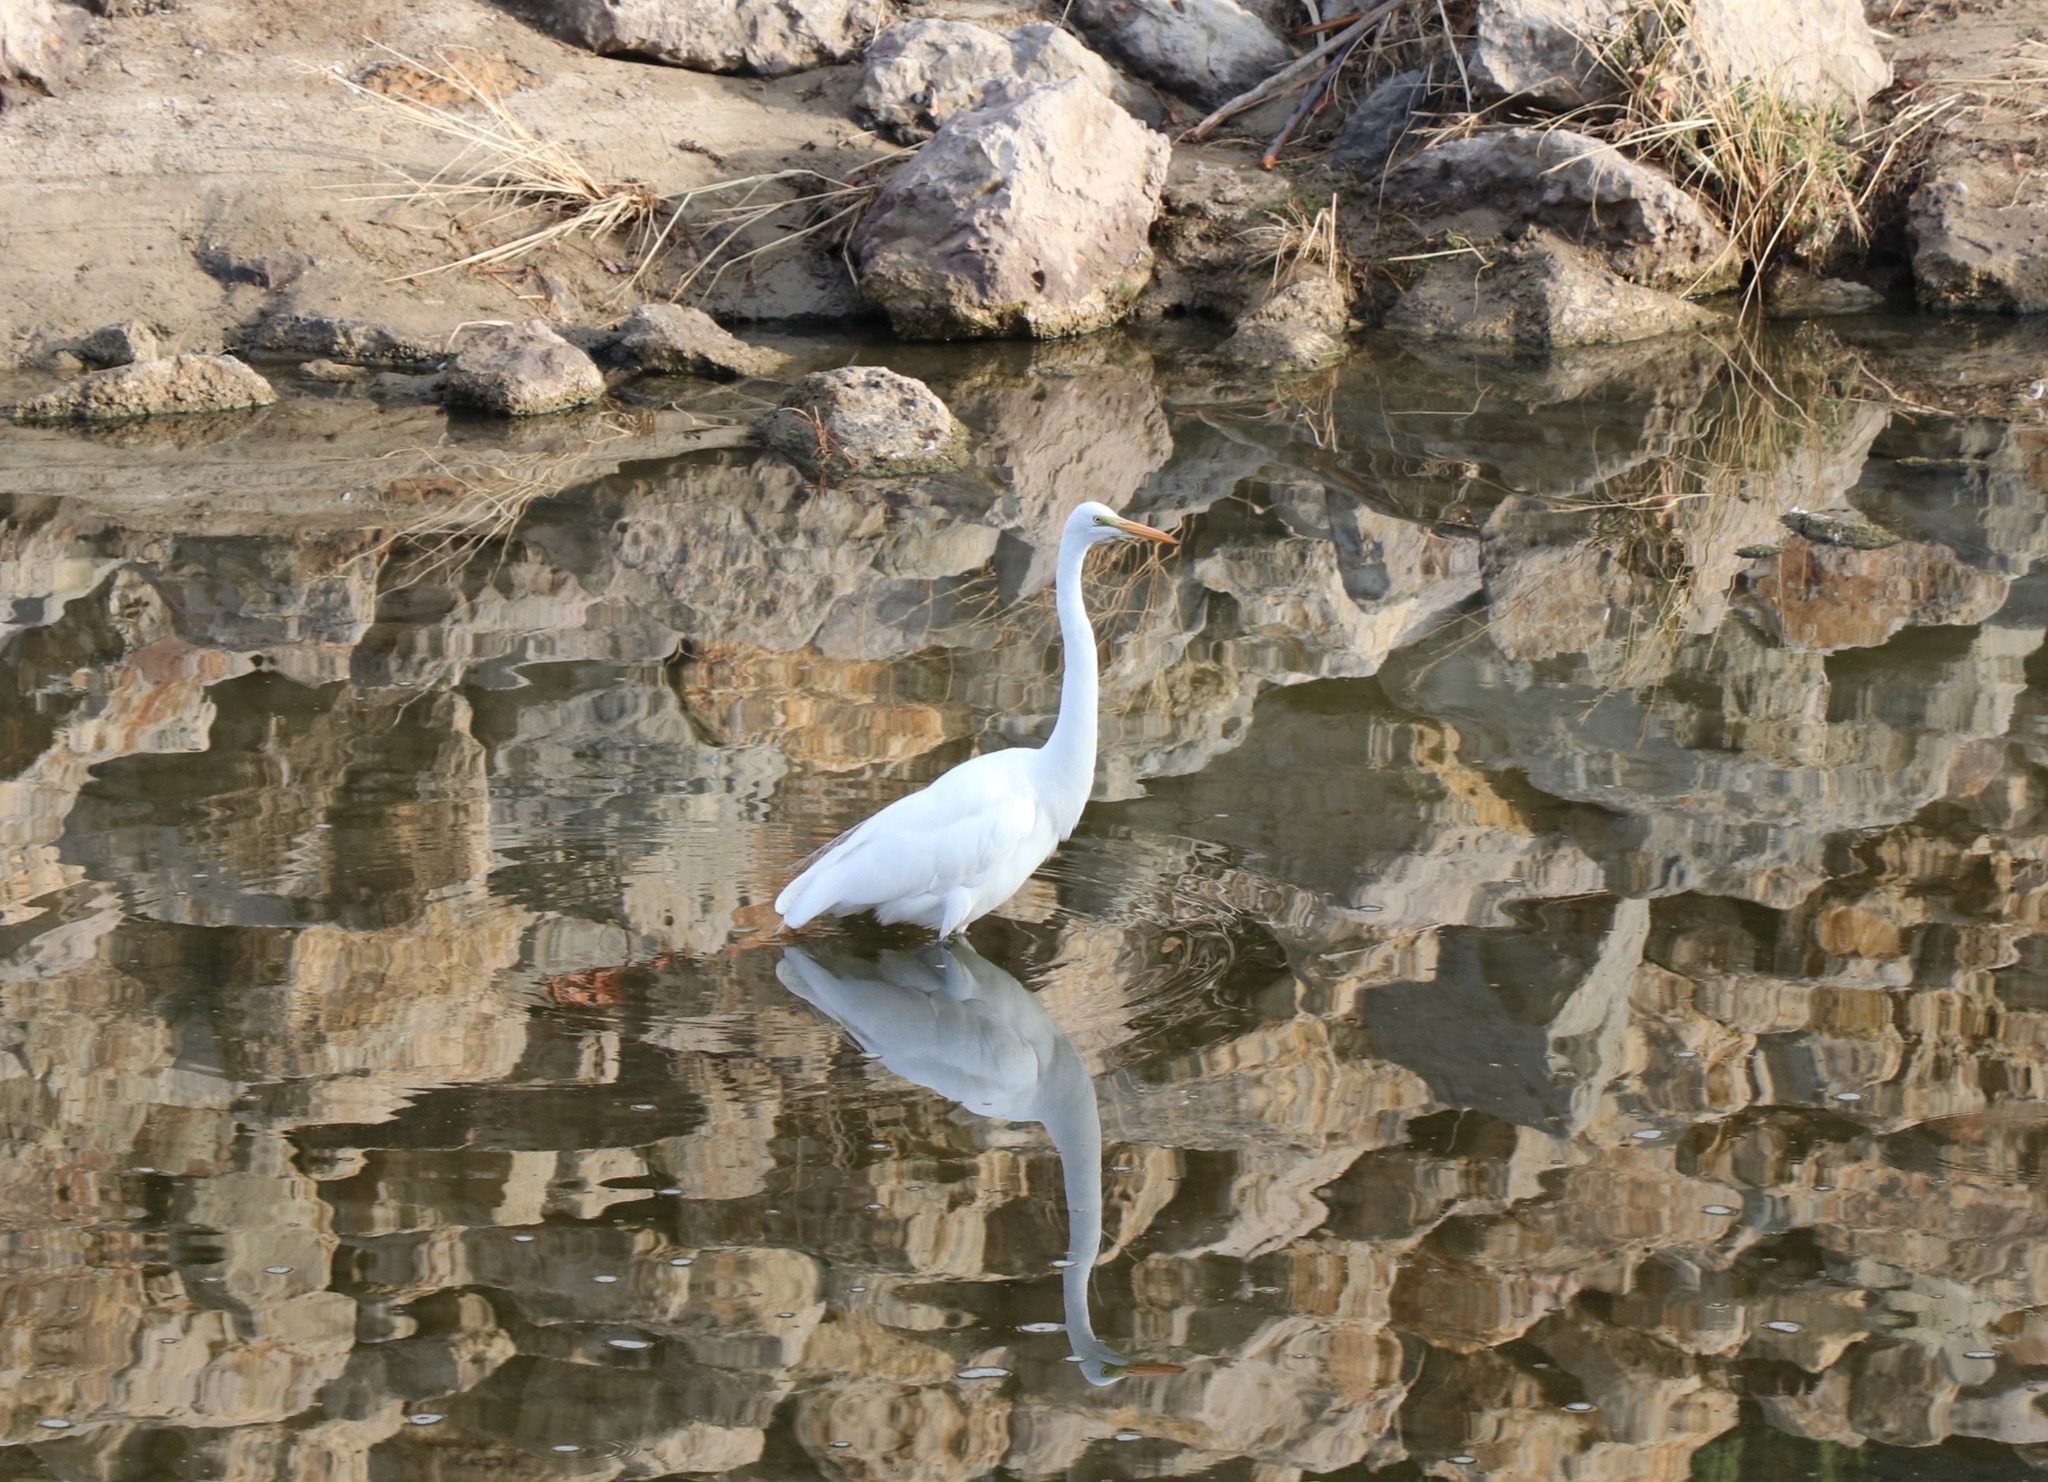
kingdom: Animalia
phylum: Chordata
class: Aves
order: Pelecaniformes
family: Ardeidae
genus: Ardea
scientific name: Ardea alba
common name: Great egret
